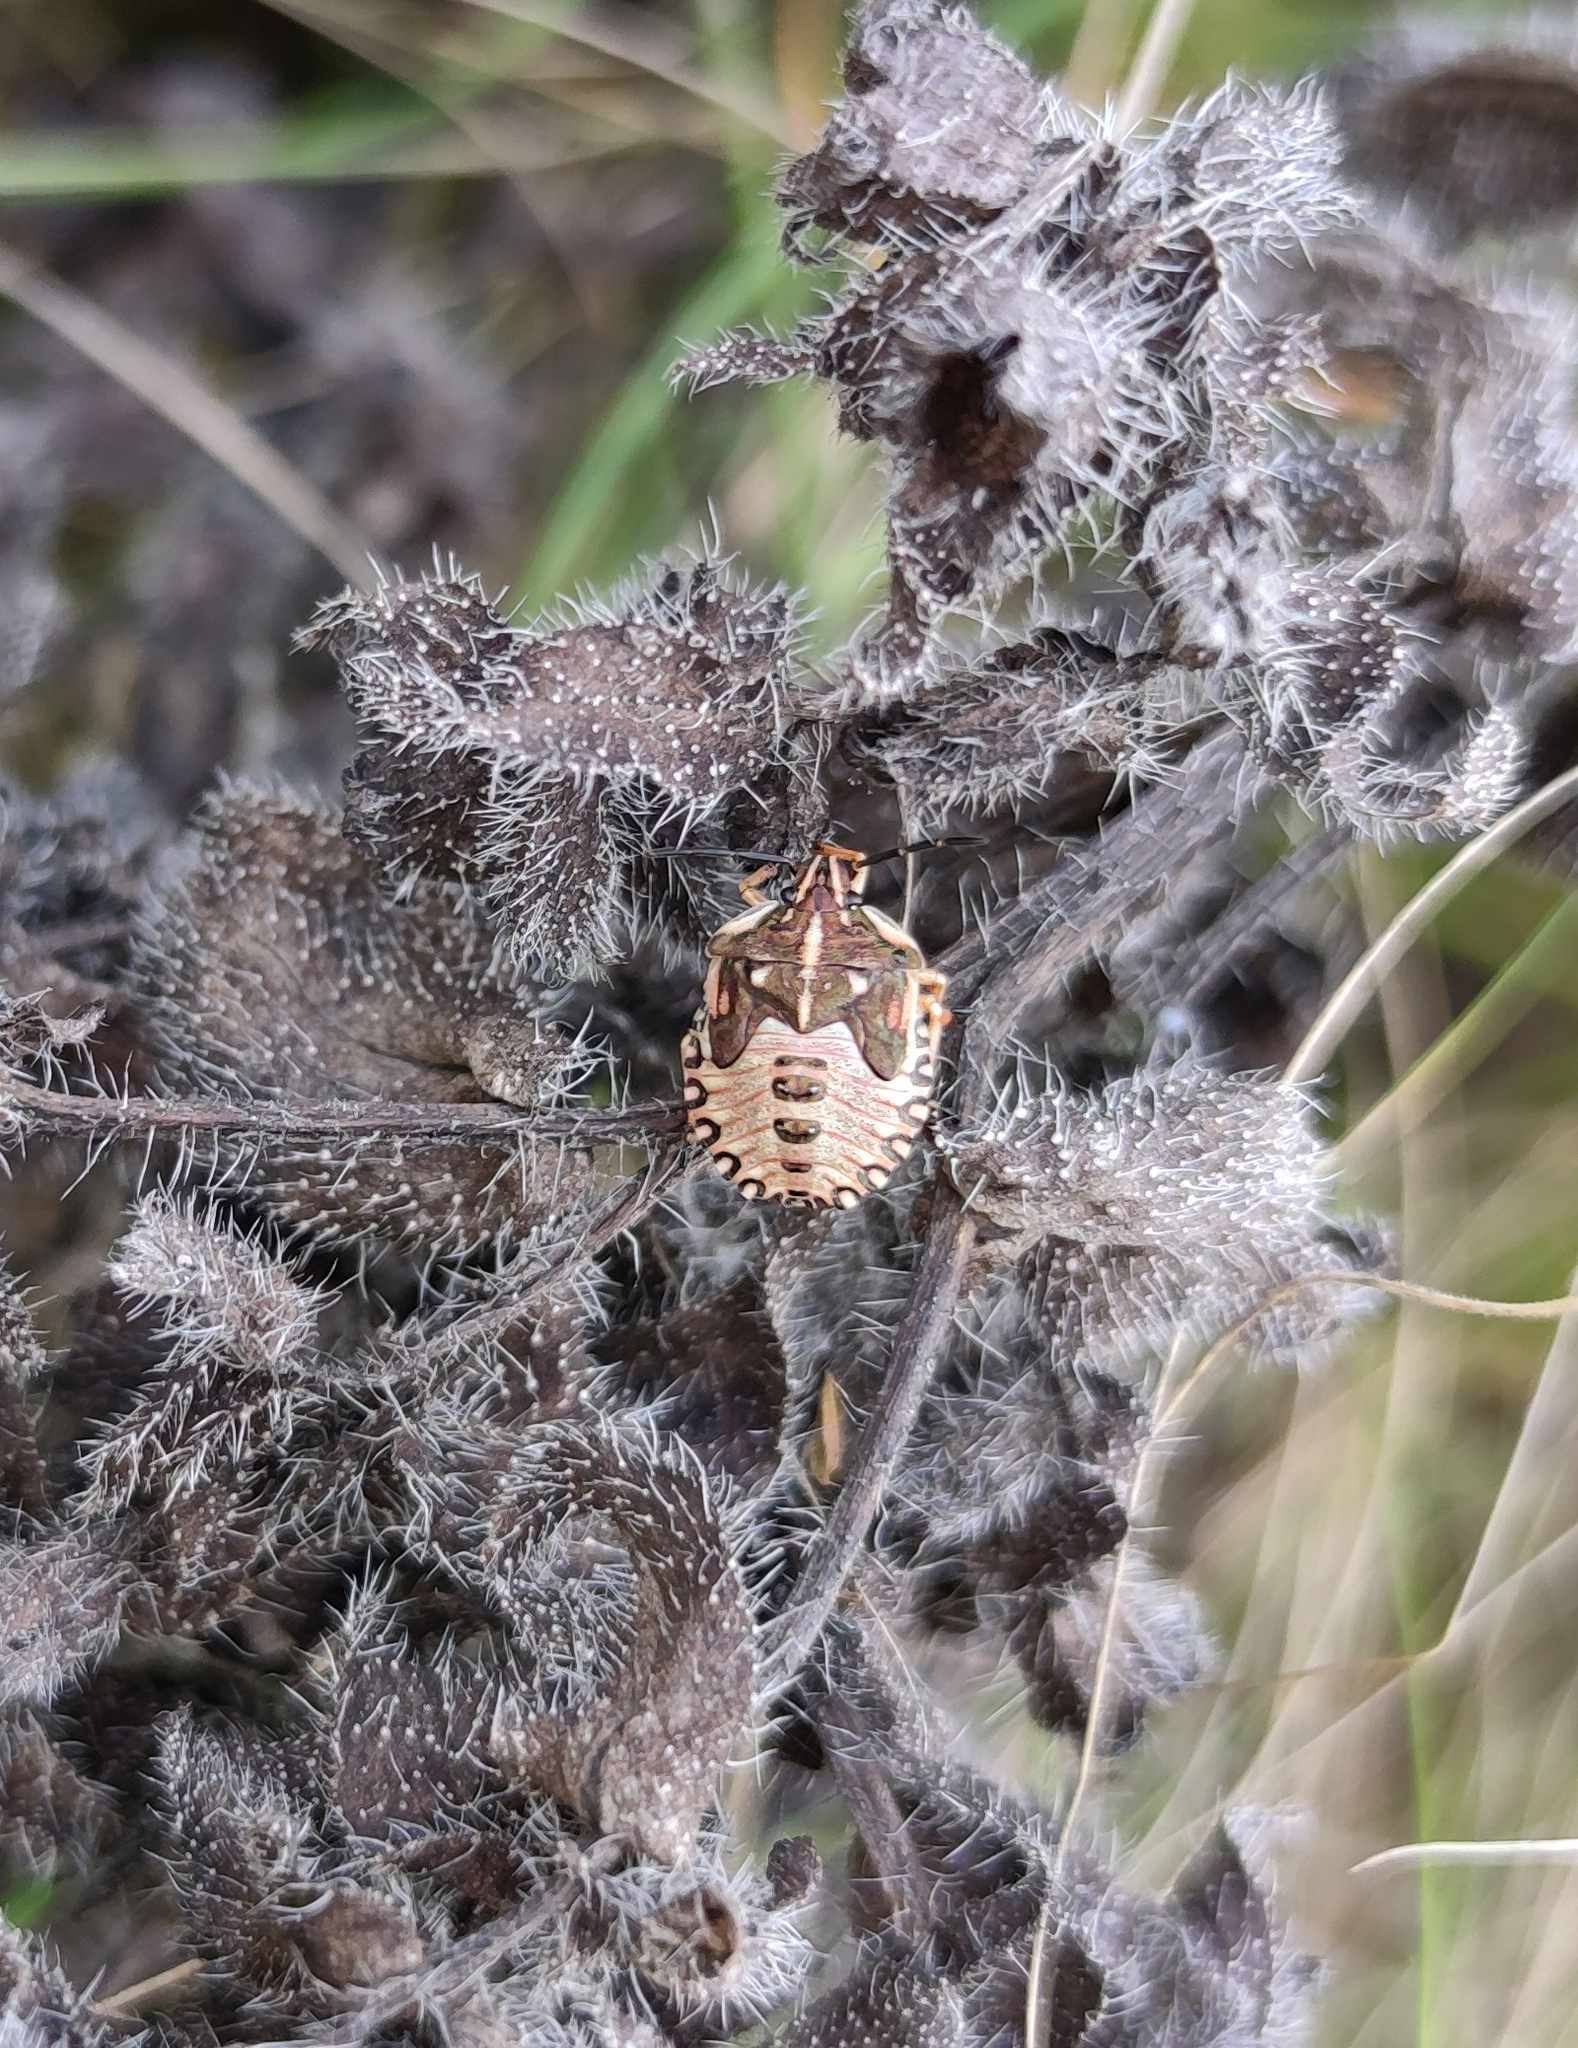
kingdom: Animalia
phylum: Arthropoda
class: Insecta
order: Hemiptera
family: Pentatomidae
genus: Carpocoris
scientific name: Carpocoris purpureipennis
